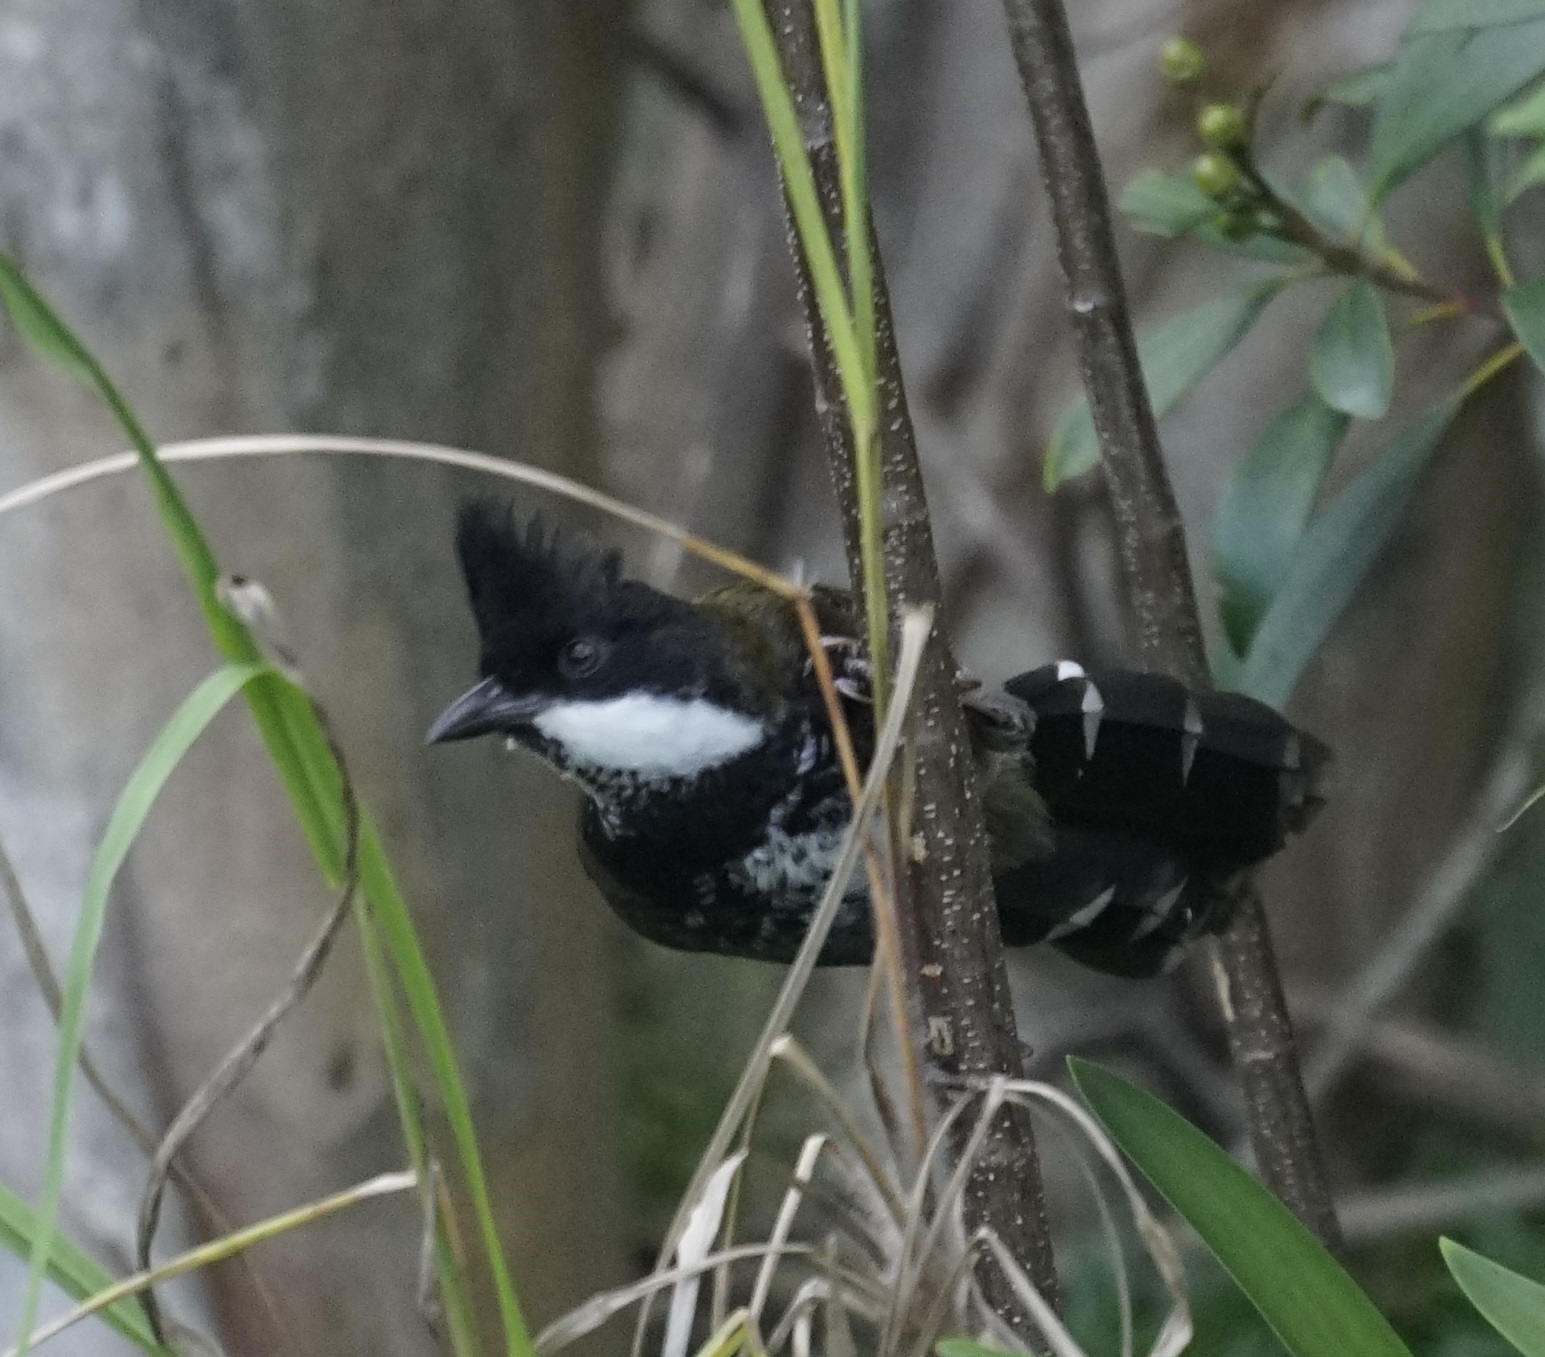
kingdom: Animalia
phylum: Chordata
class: Aves
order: Passeriformes
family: Psophodidae
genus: Psophodes
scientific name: Psophodes olivaceus
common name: Eastern whipbird
